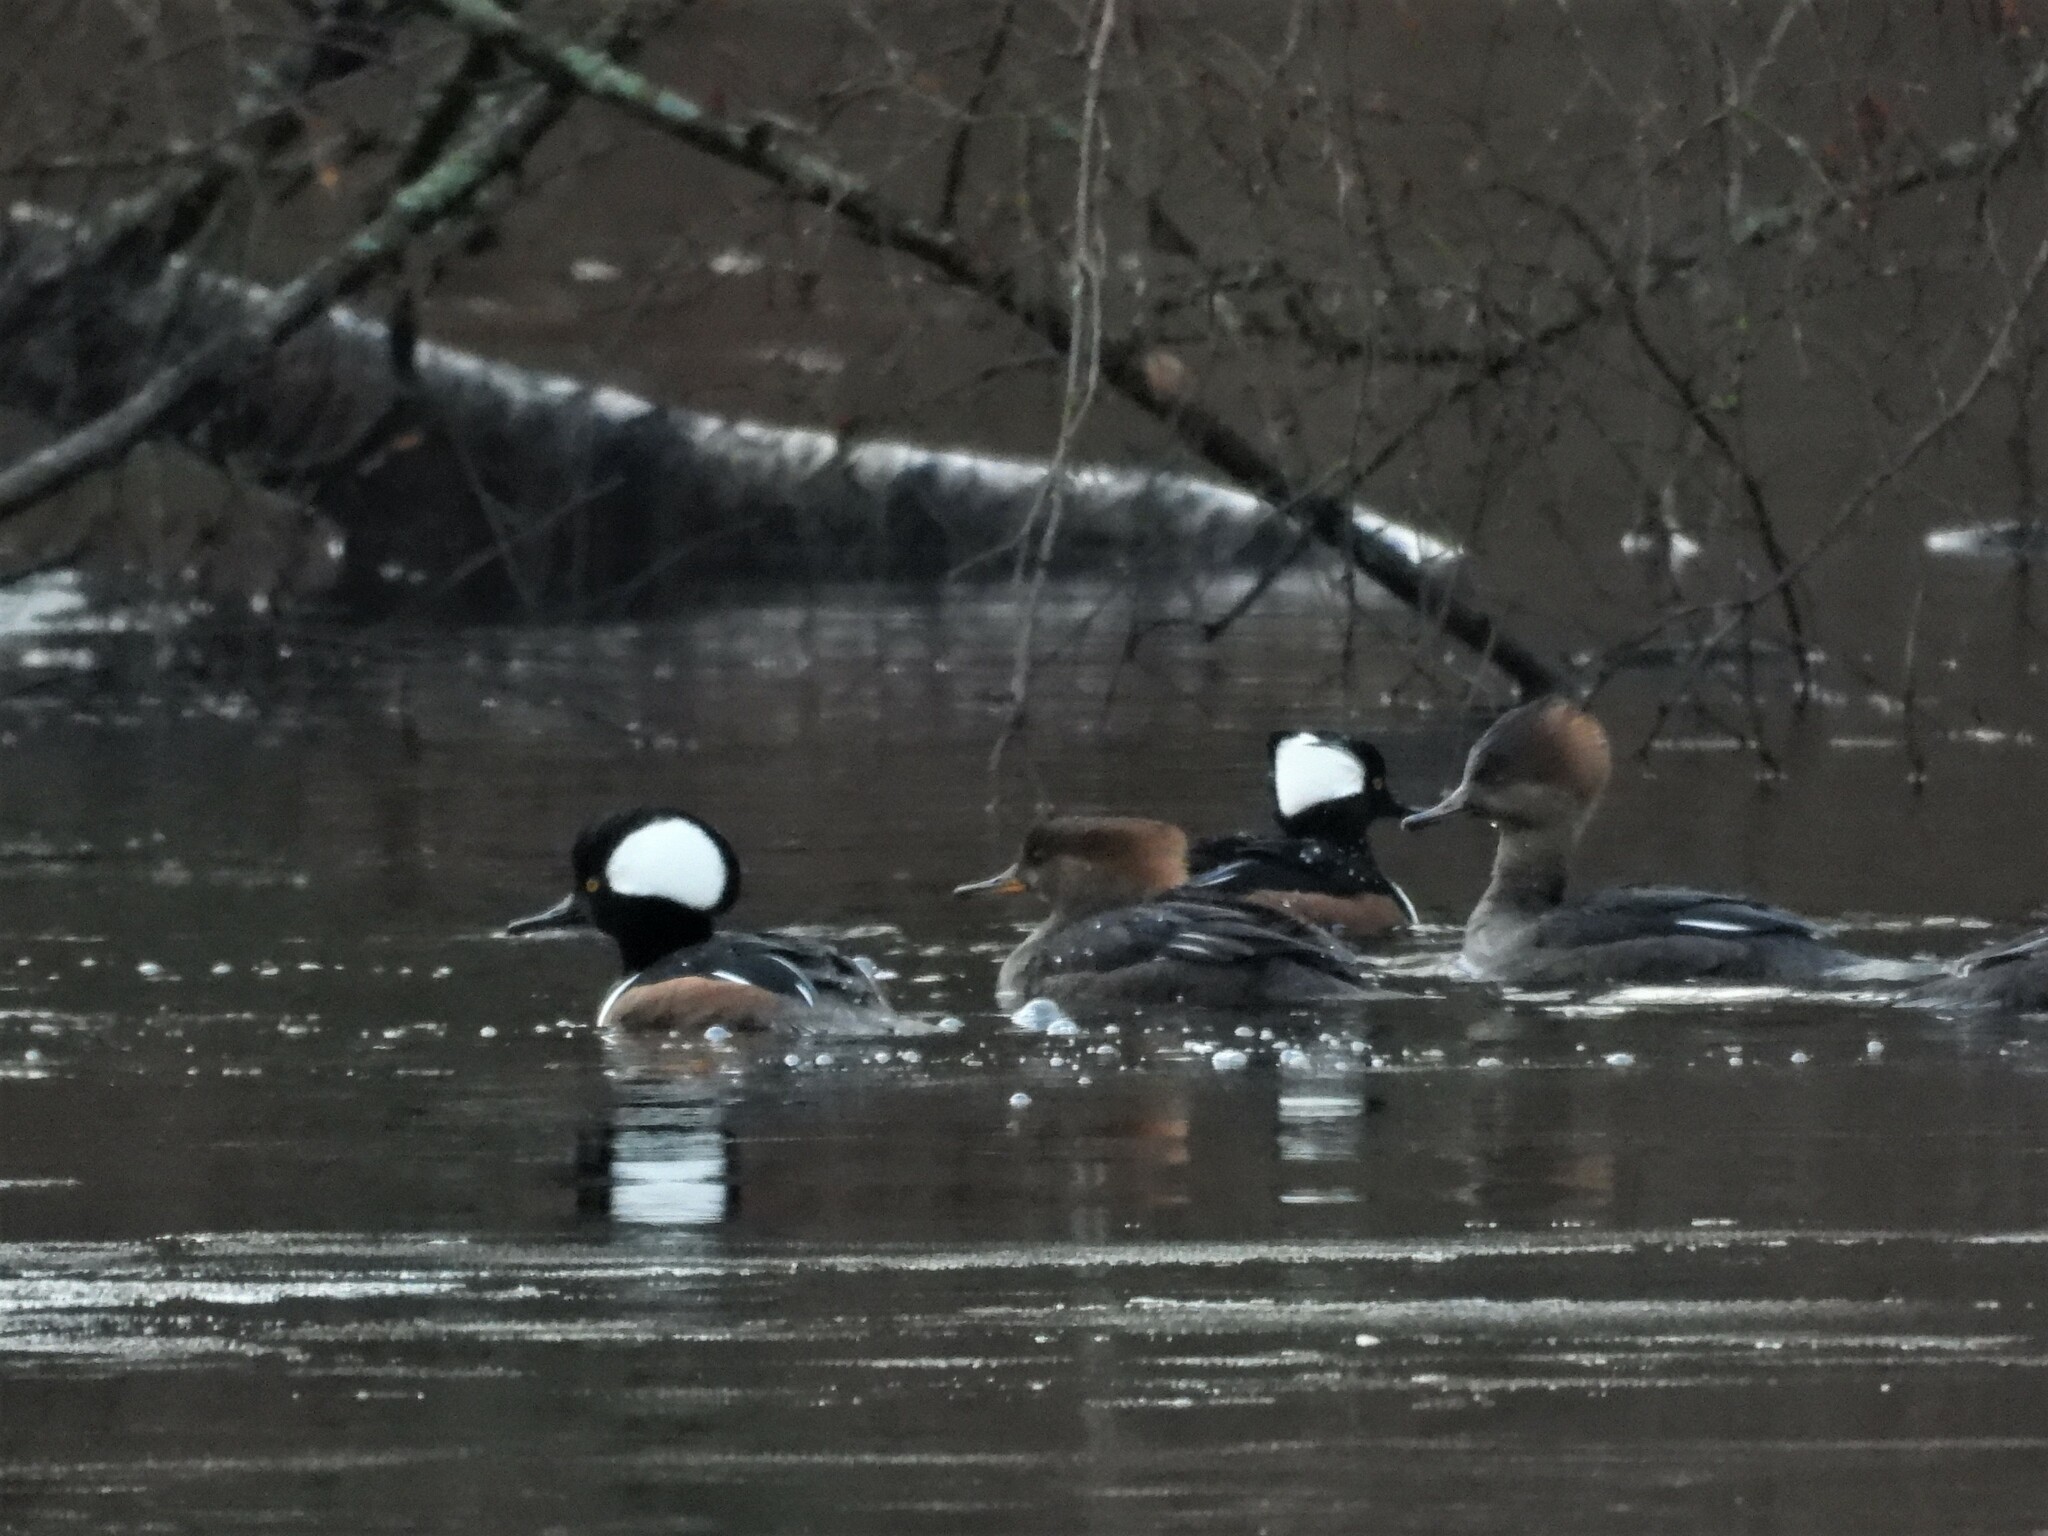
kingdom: Animalia
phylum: Chordata
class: Aves
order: Anseriformes
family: Anatidae
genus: Lophodytes
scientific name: Lophodytes cucullatus
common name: Hooded merganser
